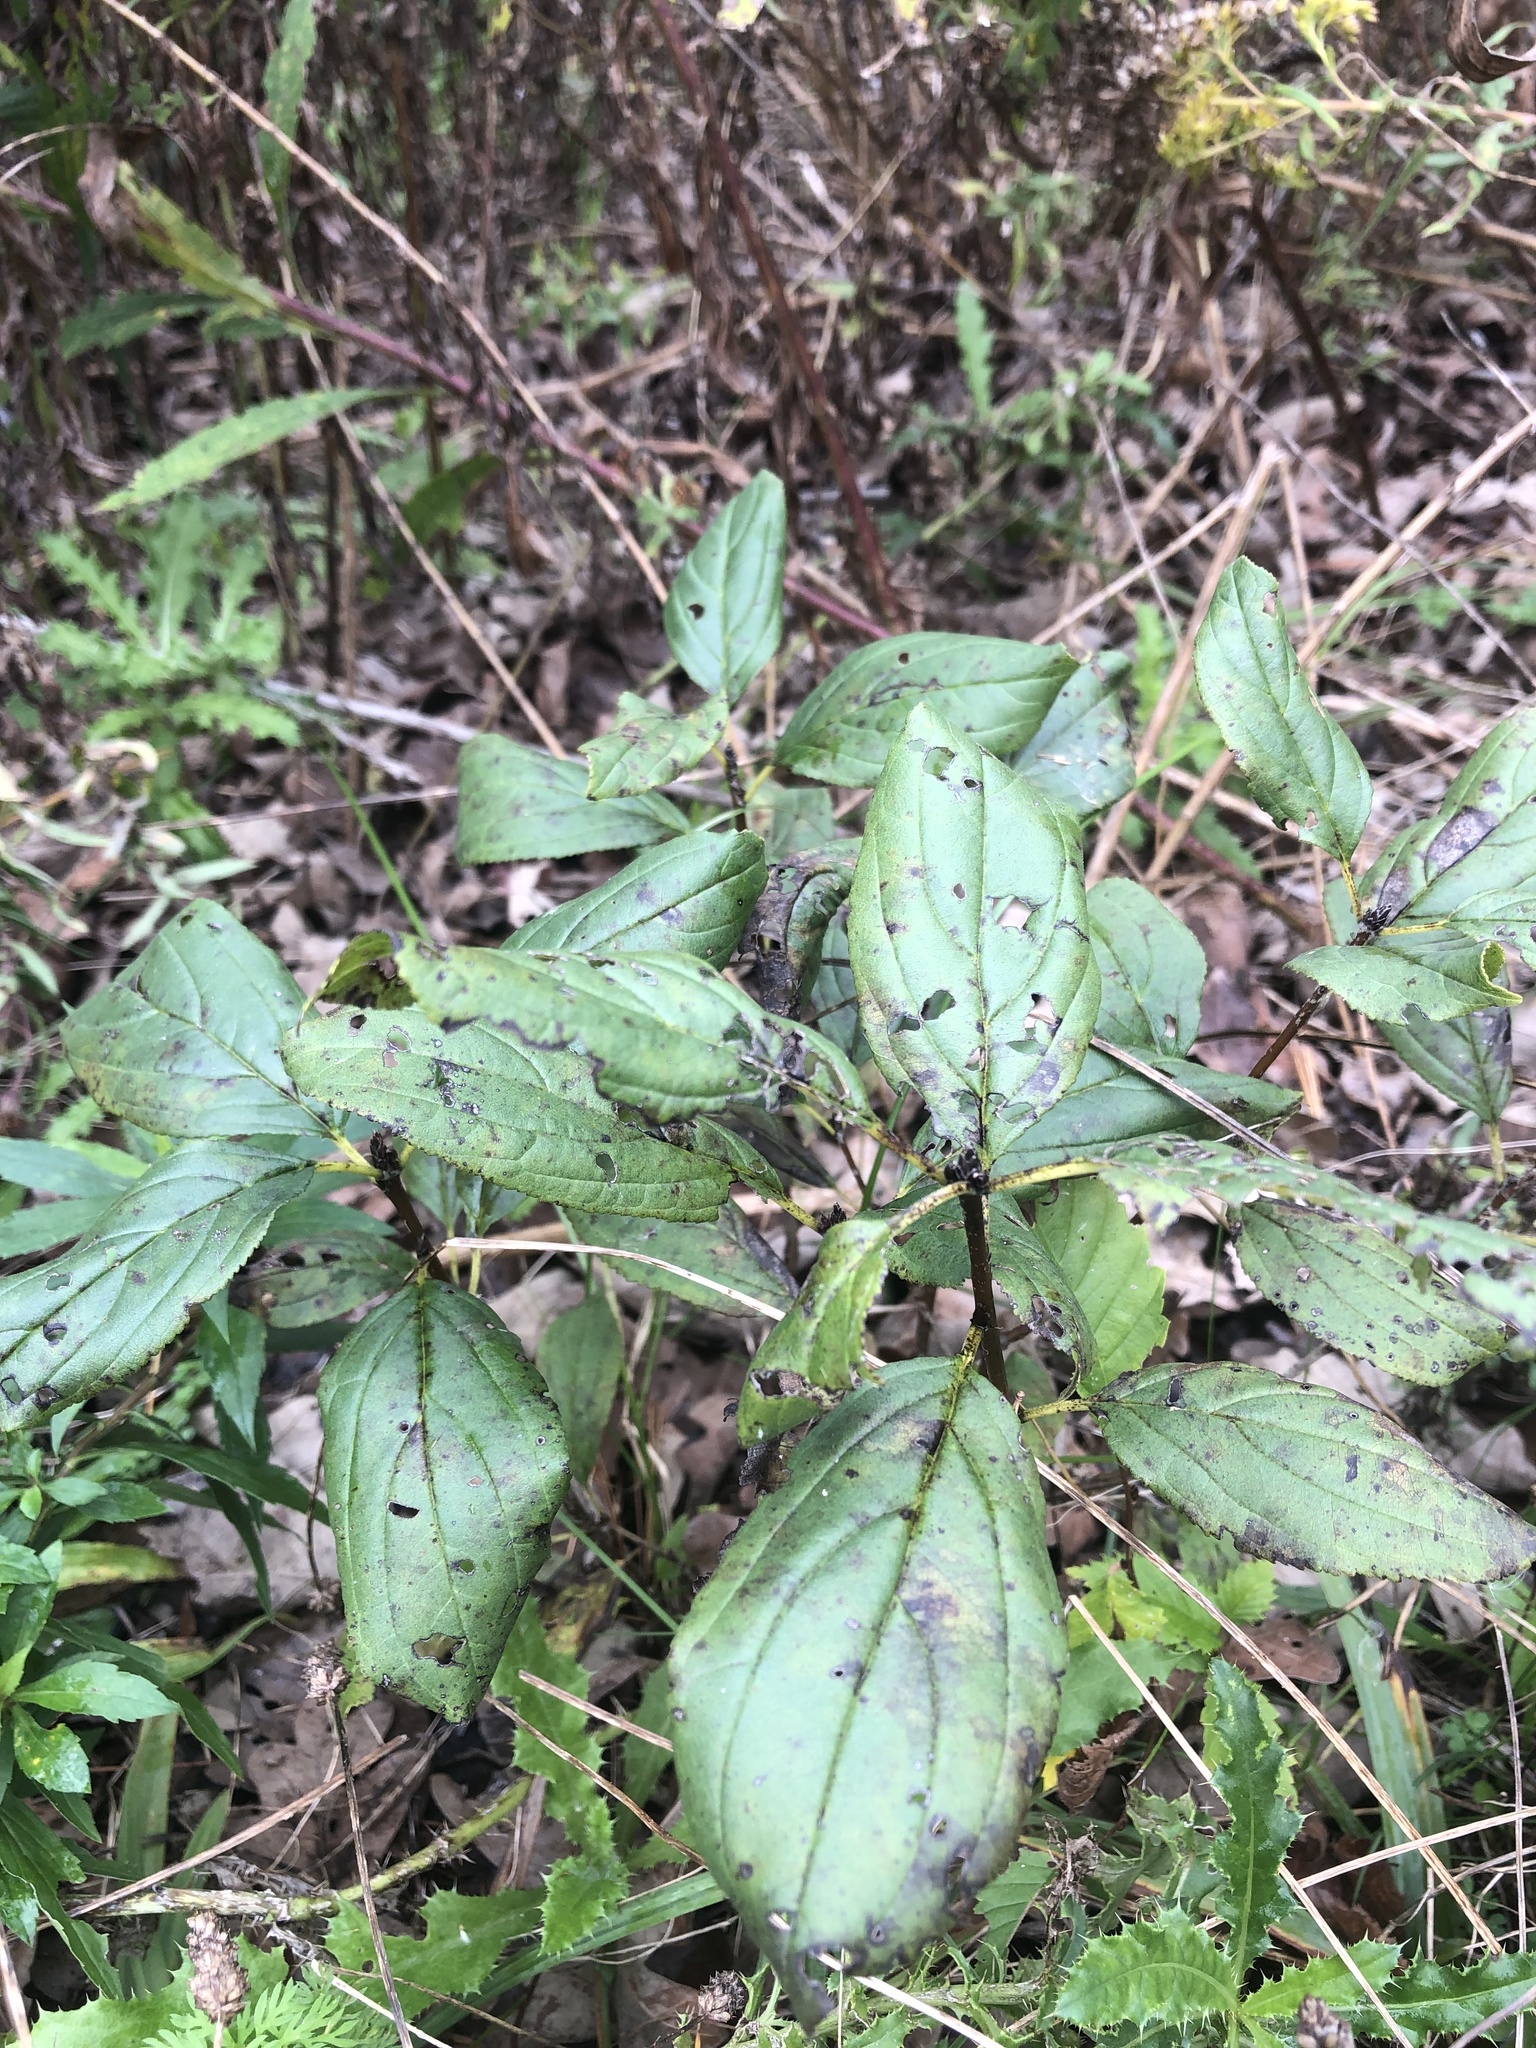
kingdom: Plantae
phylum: Tracheophyta
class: Magnoliopsida
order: Rosales
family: Rhamnaceae
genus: Rhamnus
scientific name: Rhamnus cathartica
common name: Common buckthorn
